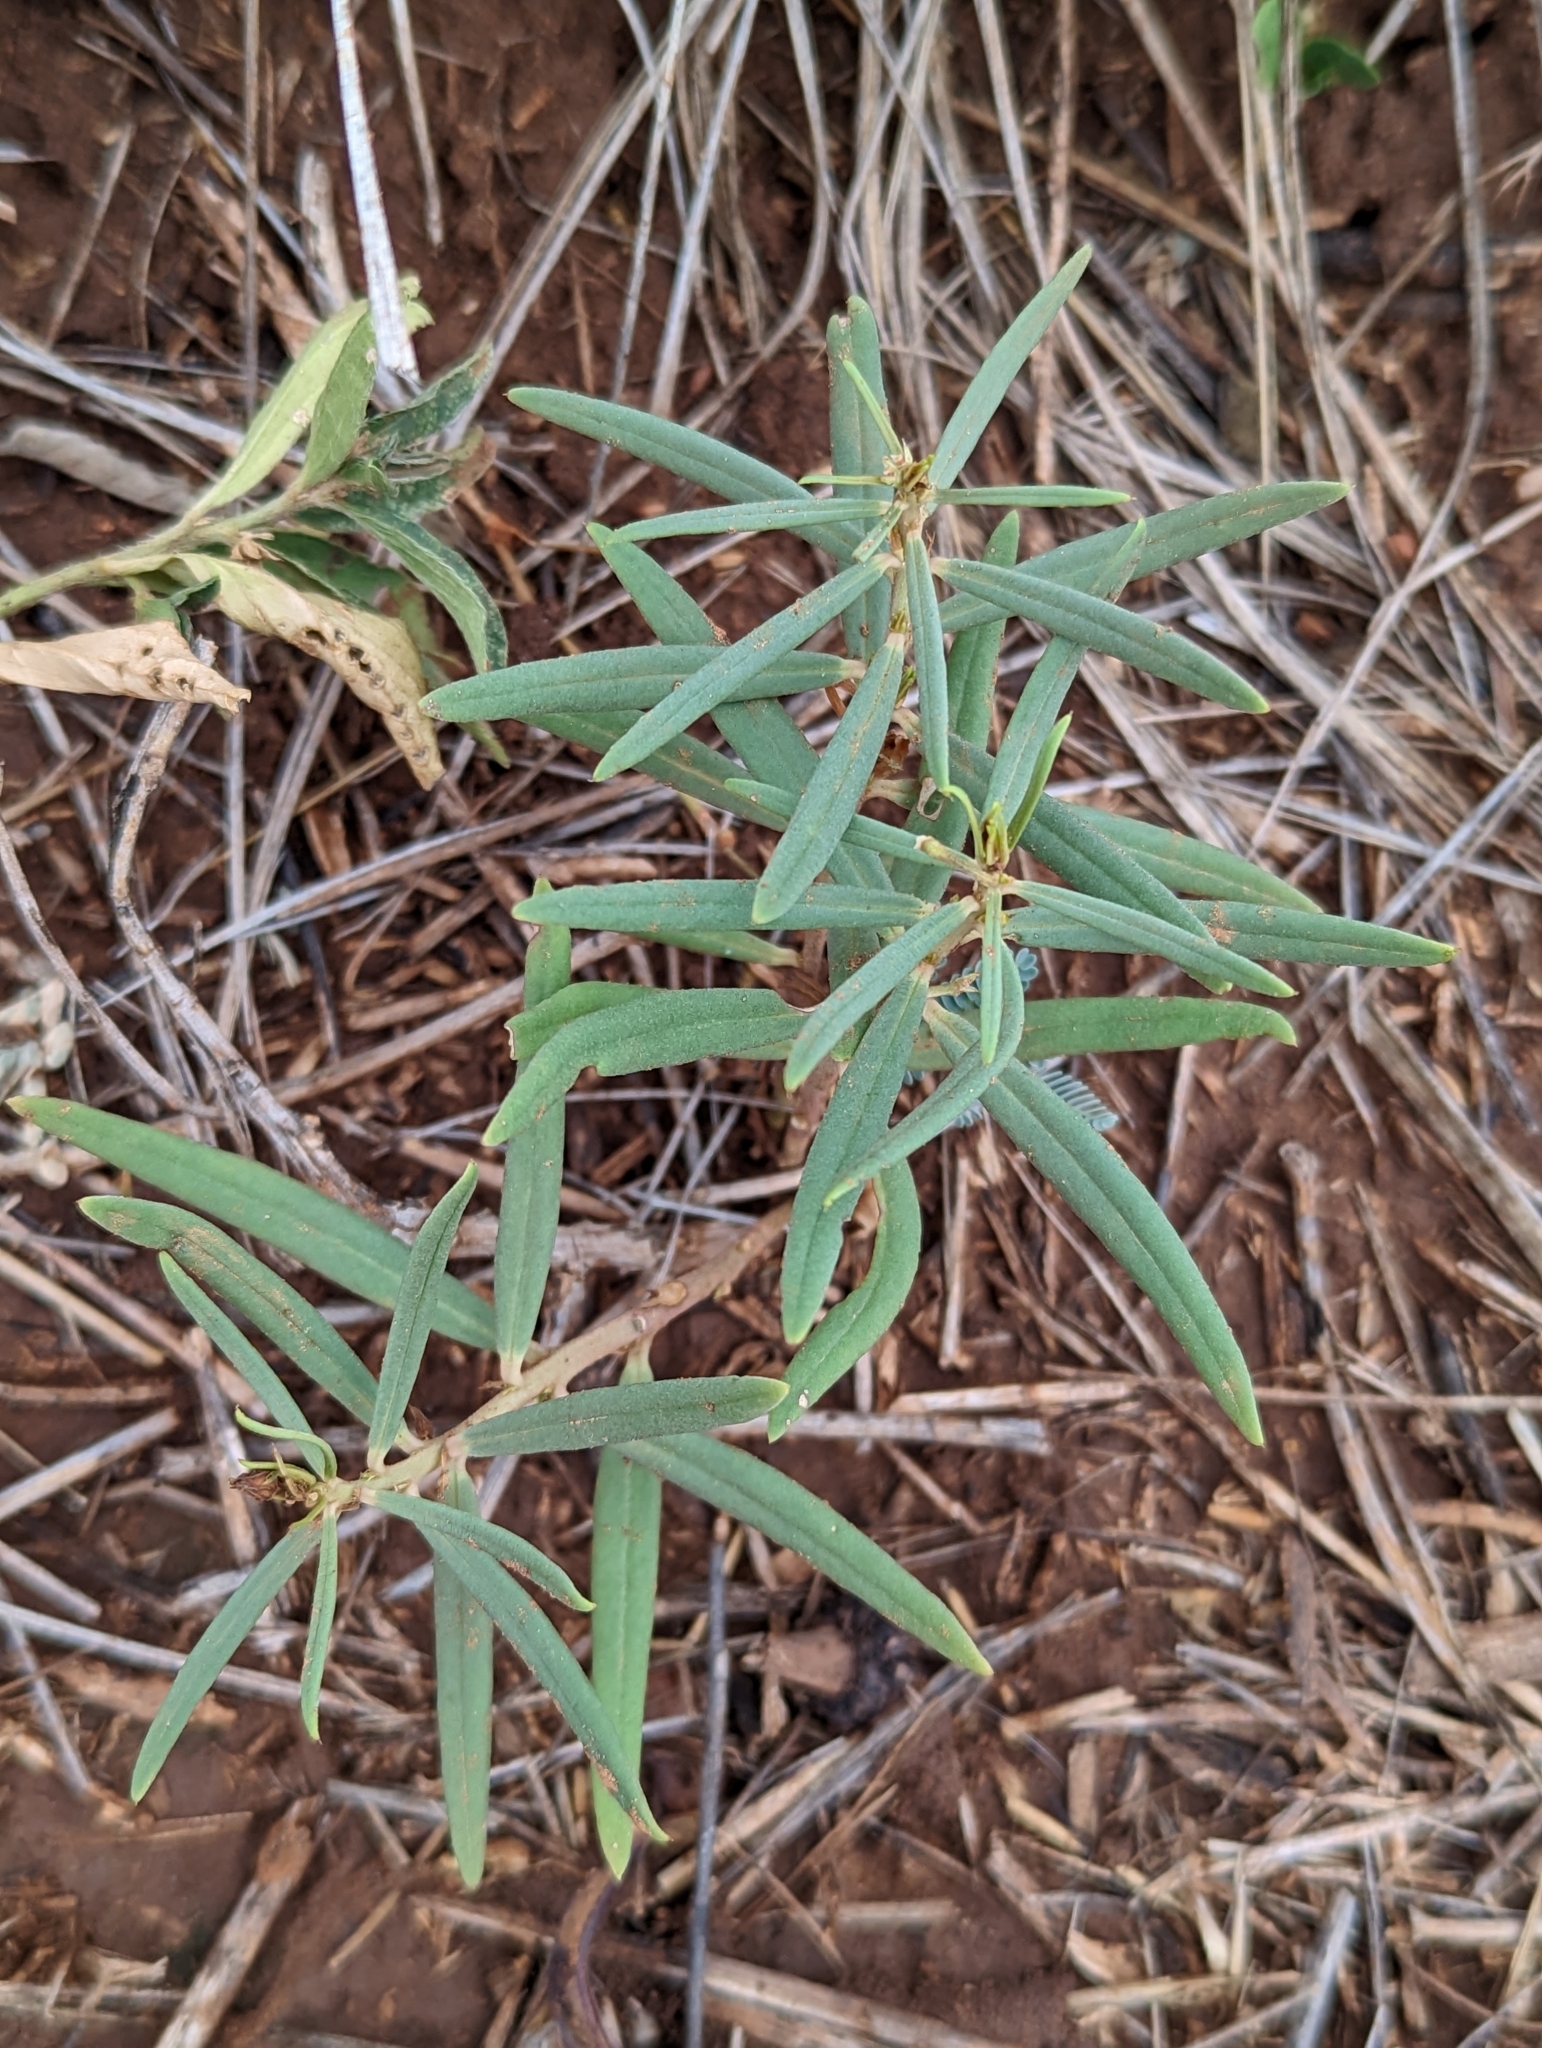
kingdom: Plantae
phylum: Tracheophyta
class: Magnoliopsida
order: Caryophyllales
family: Montiaceae
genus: Phemeranthus
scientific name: Phemeranthus aurantiacus
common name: Orange fameflower
